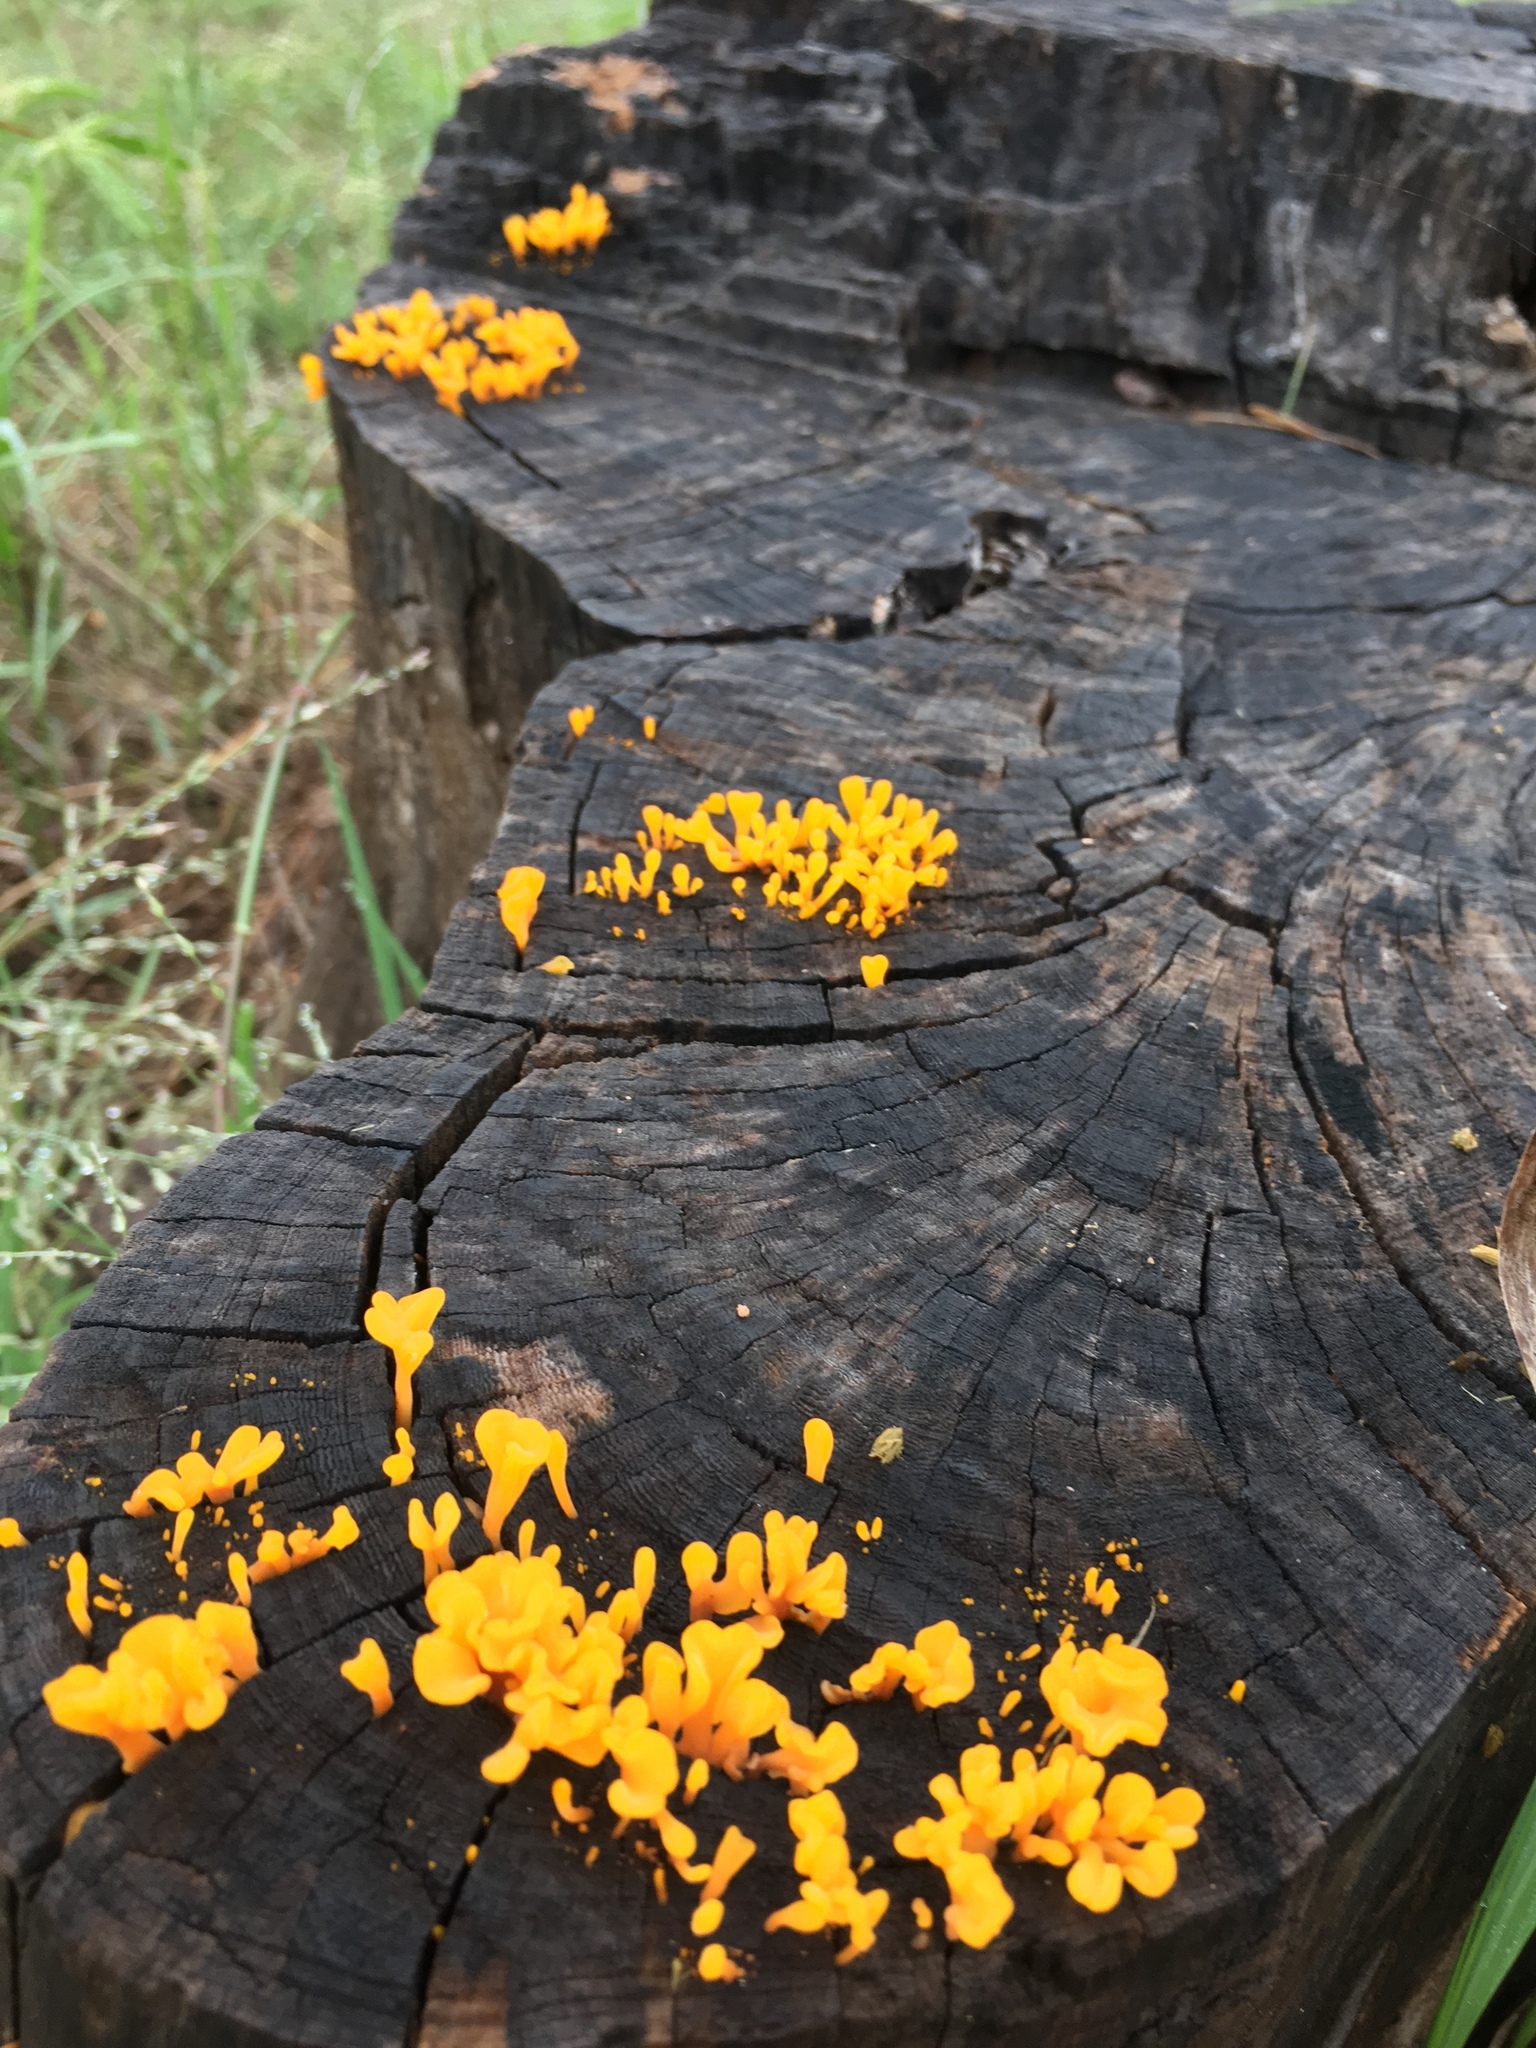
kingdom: Fungi
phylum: Basidiomycota
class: Dacrymycetes
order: Dacrymycetales
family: Dacrymycetaceae
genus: Dacrymyces
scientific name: Dacrymyces spathularius
